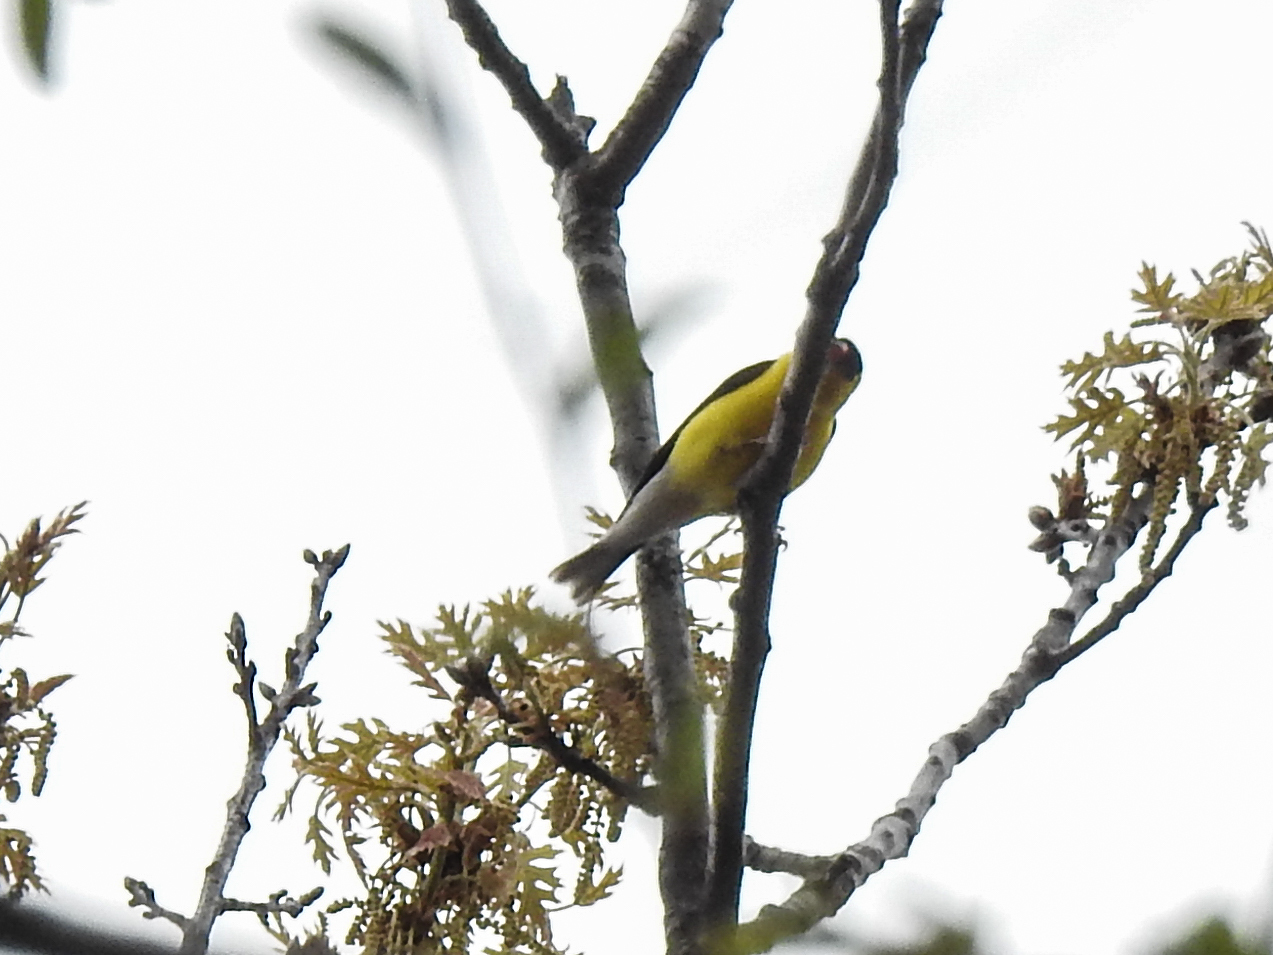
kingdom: Animalia
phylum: Chordata
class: Aves
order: Passeriformes
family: Fringillidae
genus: Spinus
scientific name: Spinus tristis
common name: American goldfinch
